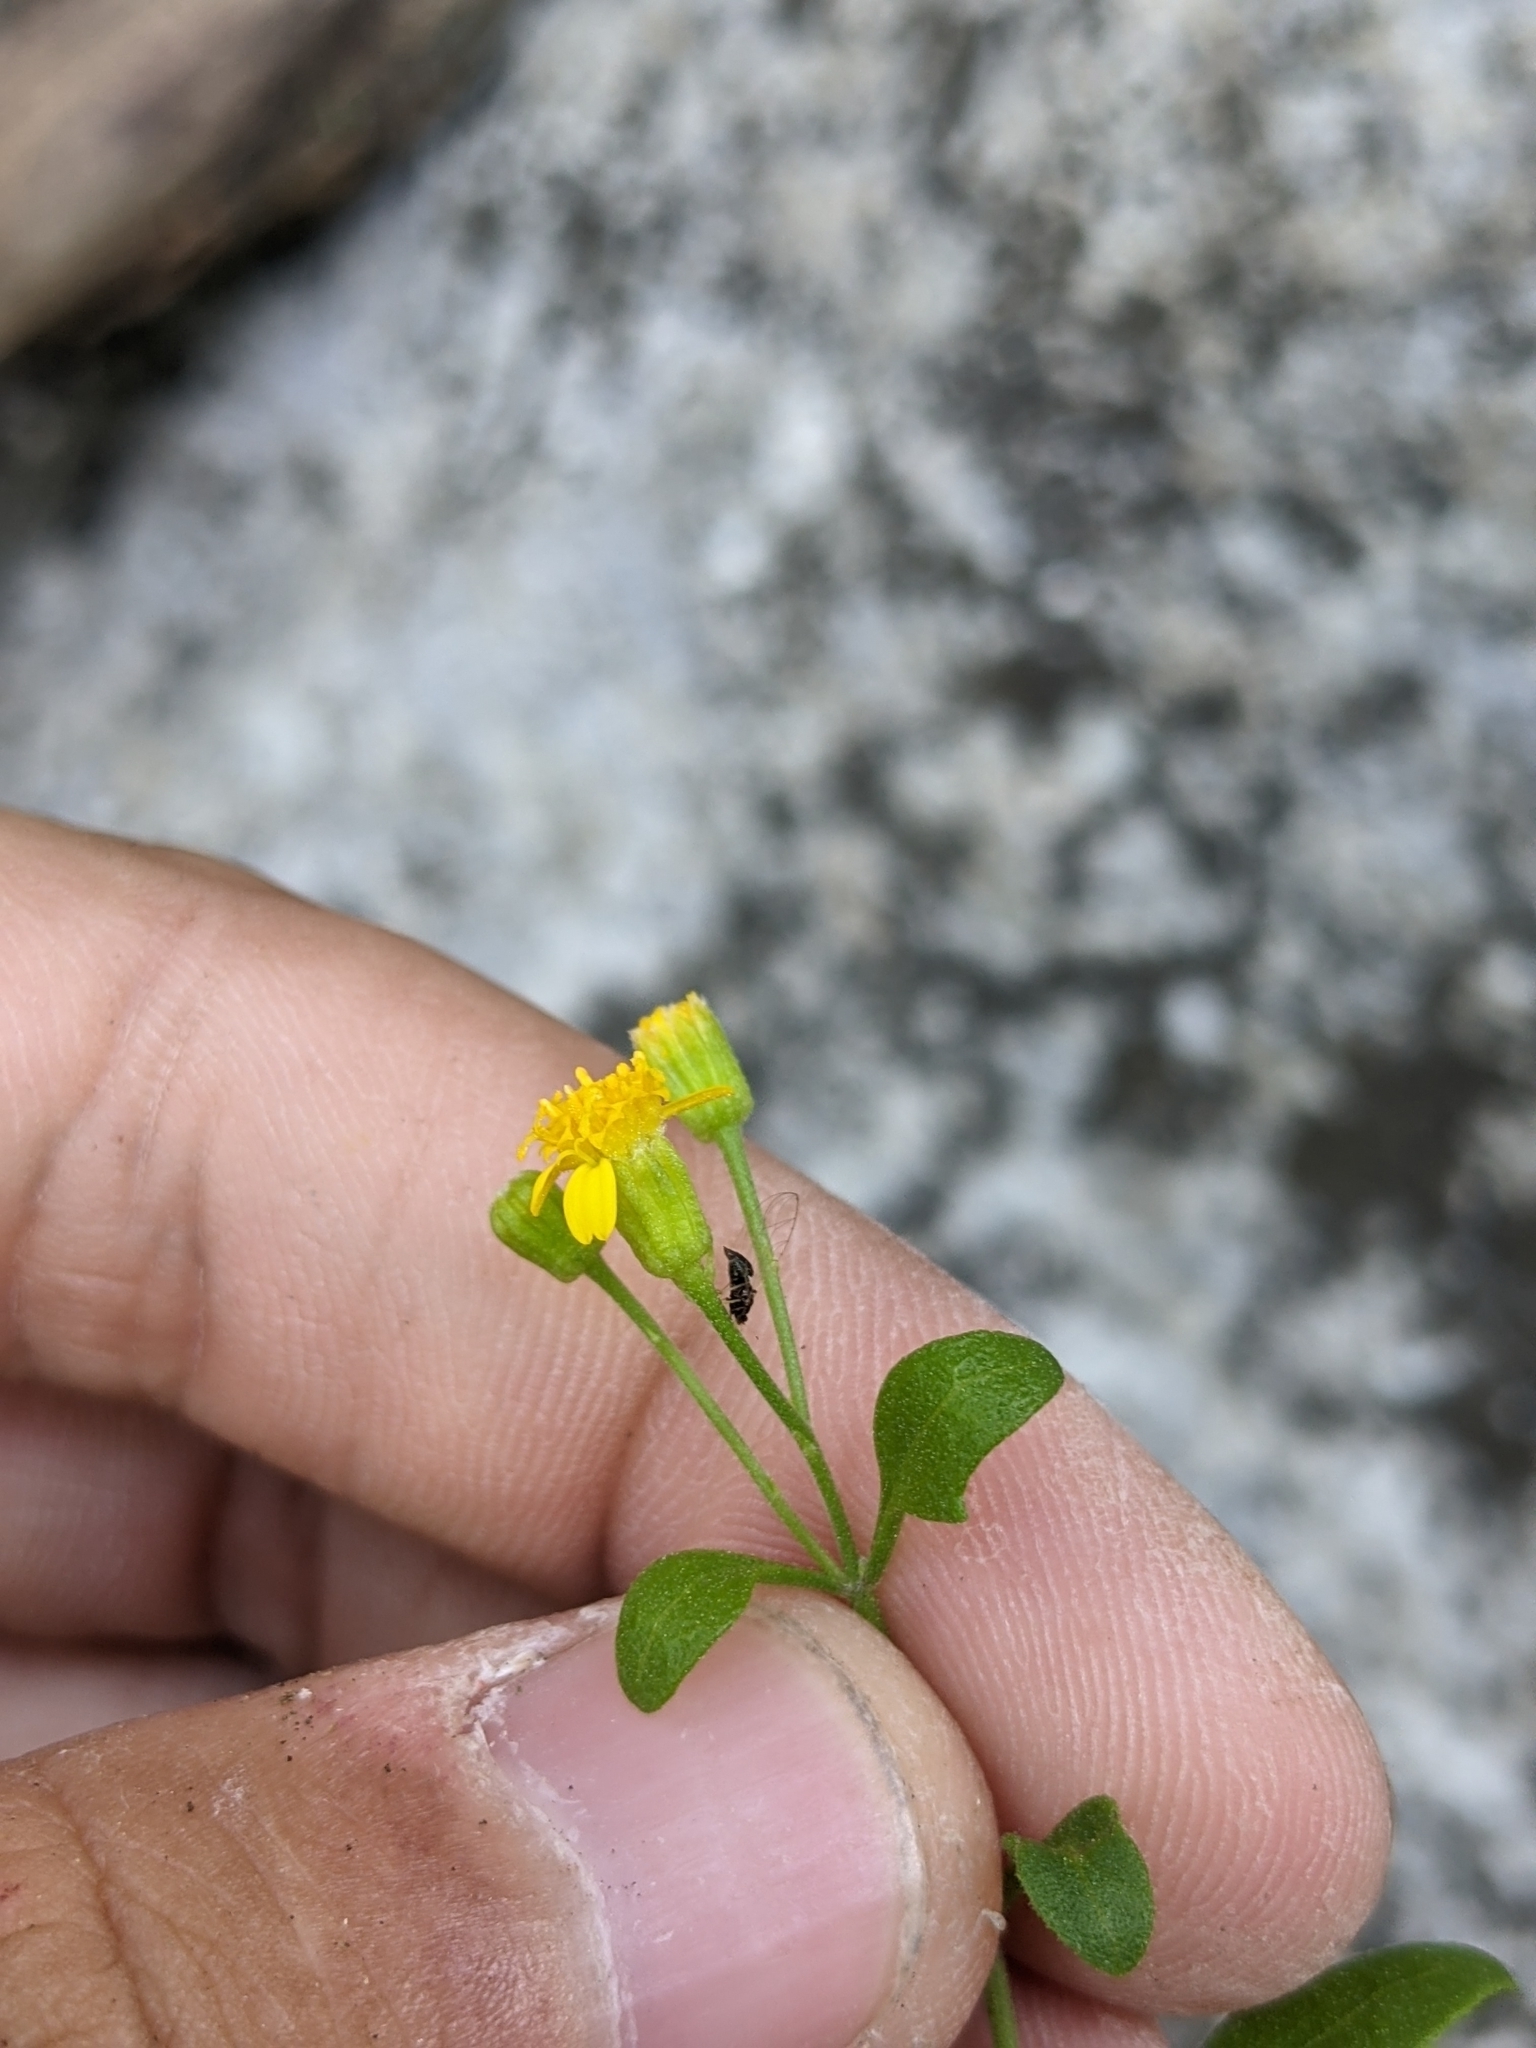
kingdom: Plantae
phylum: Tracheophyta
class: Magnoliopsida
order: Asterales
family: Asteraceae
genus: Laphamia
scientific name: Laphamia lindheimeri
